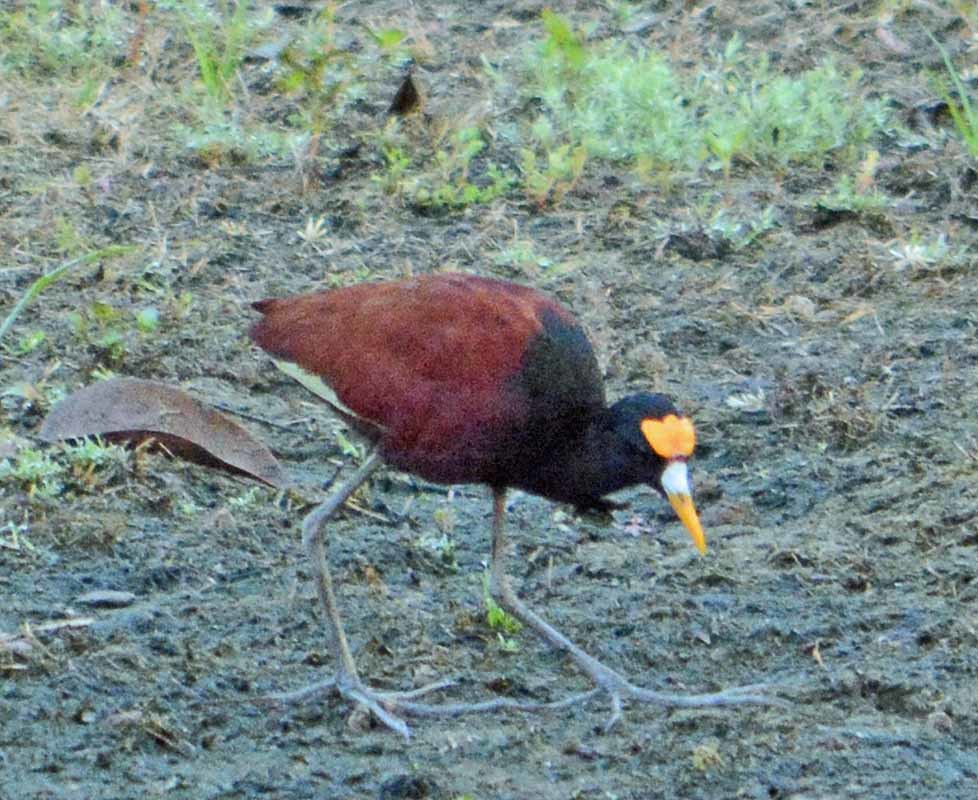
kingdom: Animalia
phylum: Chordata
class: Aves
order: Charadriiformes
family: Jacanidae
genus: Jacana
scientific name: Jacana spinosa
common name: Northern jacana
